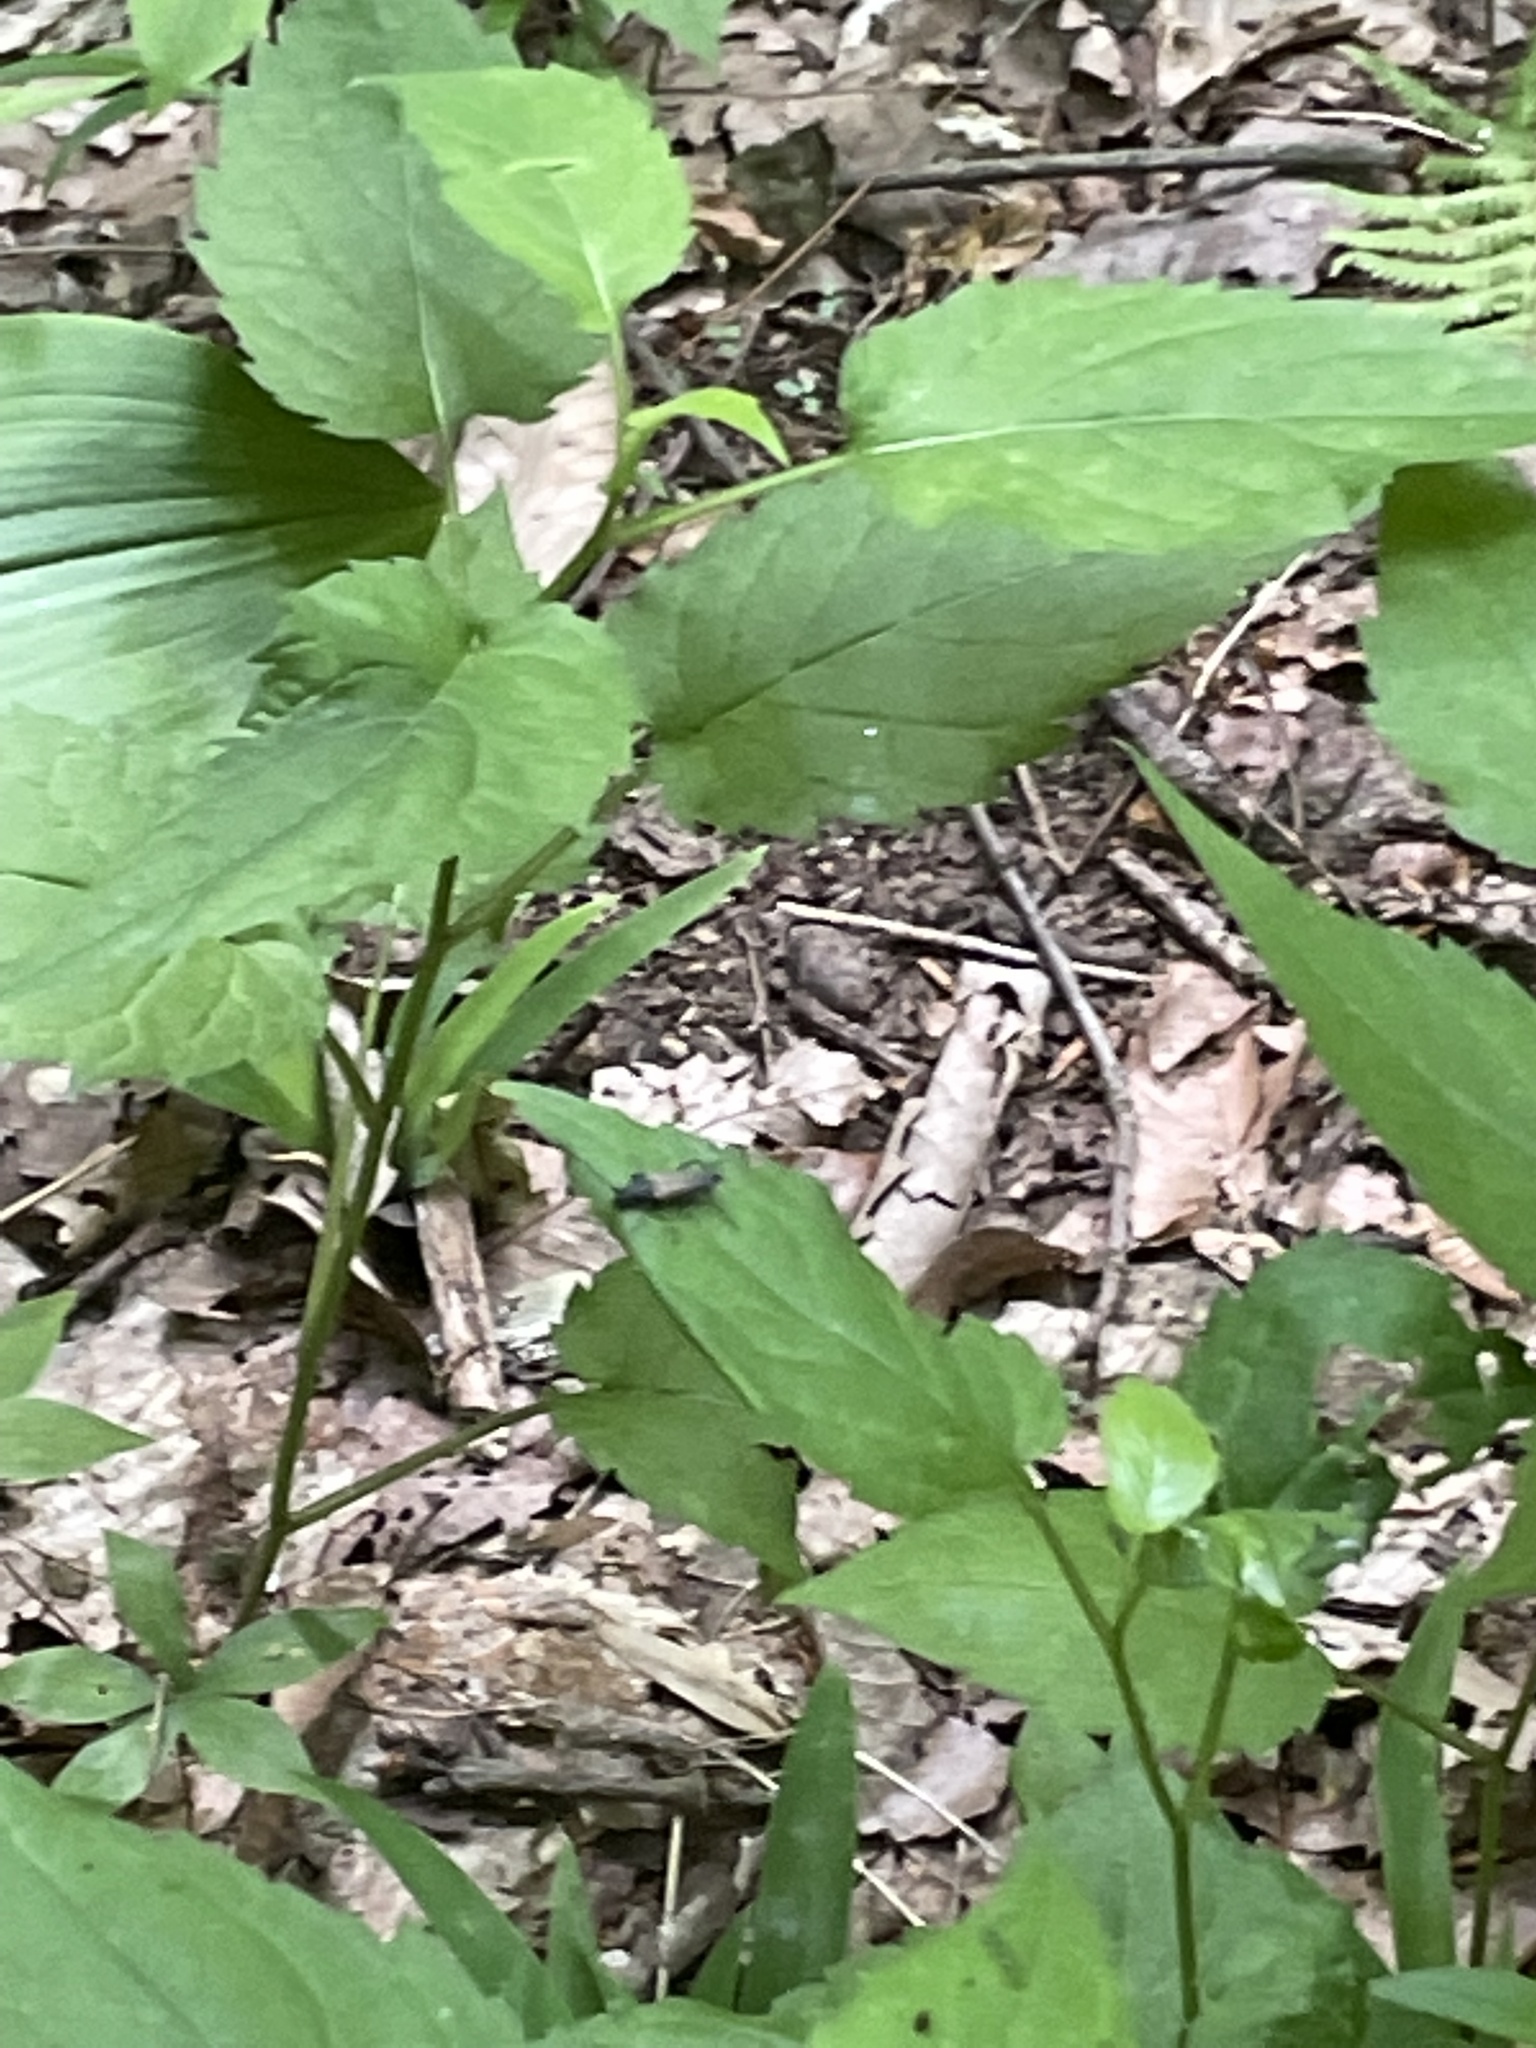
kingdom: Plantae
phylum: Tracheophyta
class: Magnoliopsida
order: Asterales
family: Asteraceae
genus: Eurybia
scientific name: Eurybia divaricata
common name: White wood aster
